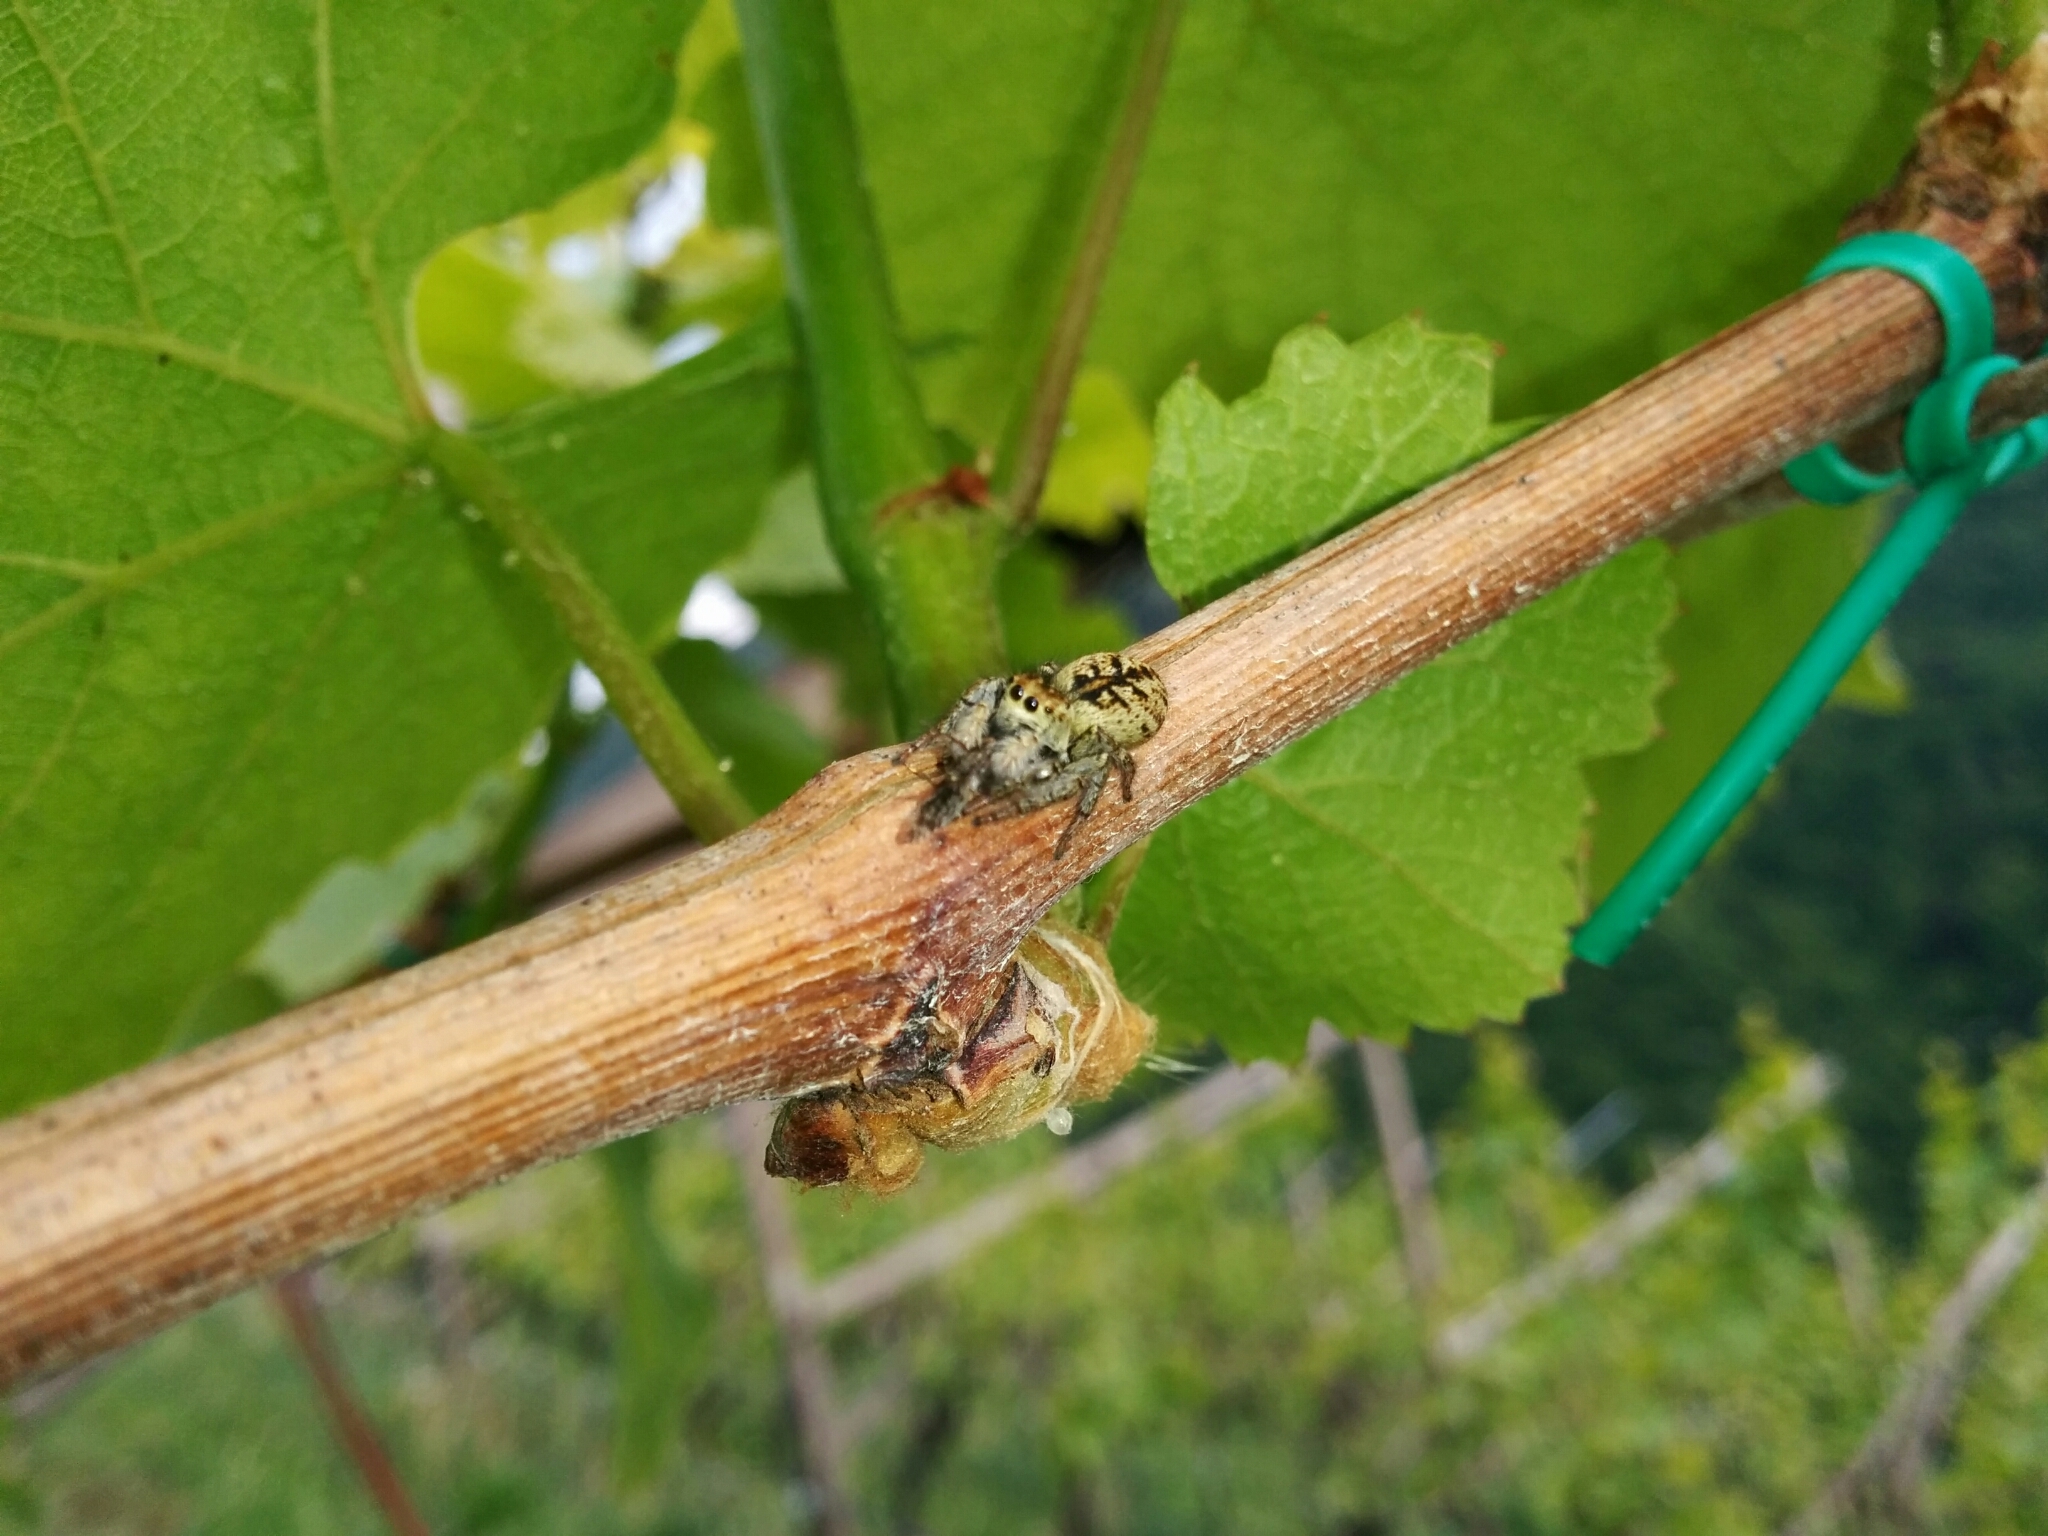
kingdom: Animalia
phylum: Arthropoda
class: Arachnida
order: Araneae
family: Salticidae
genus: Carrhotus
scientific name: Carrhotus xanthogramma
